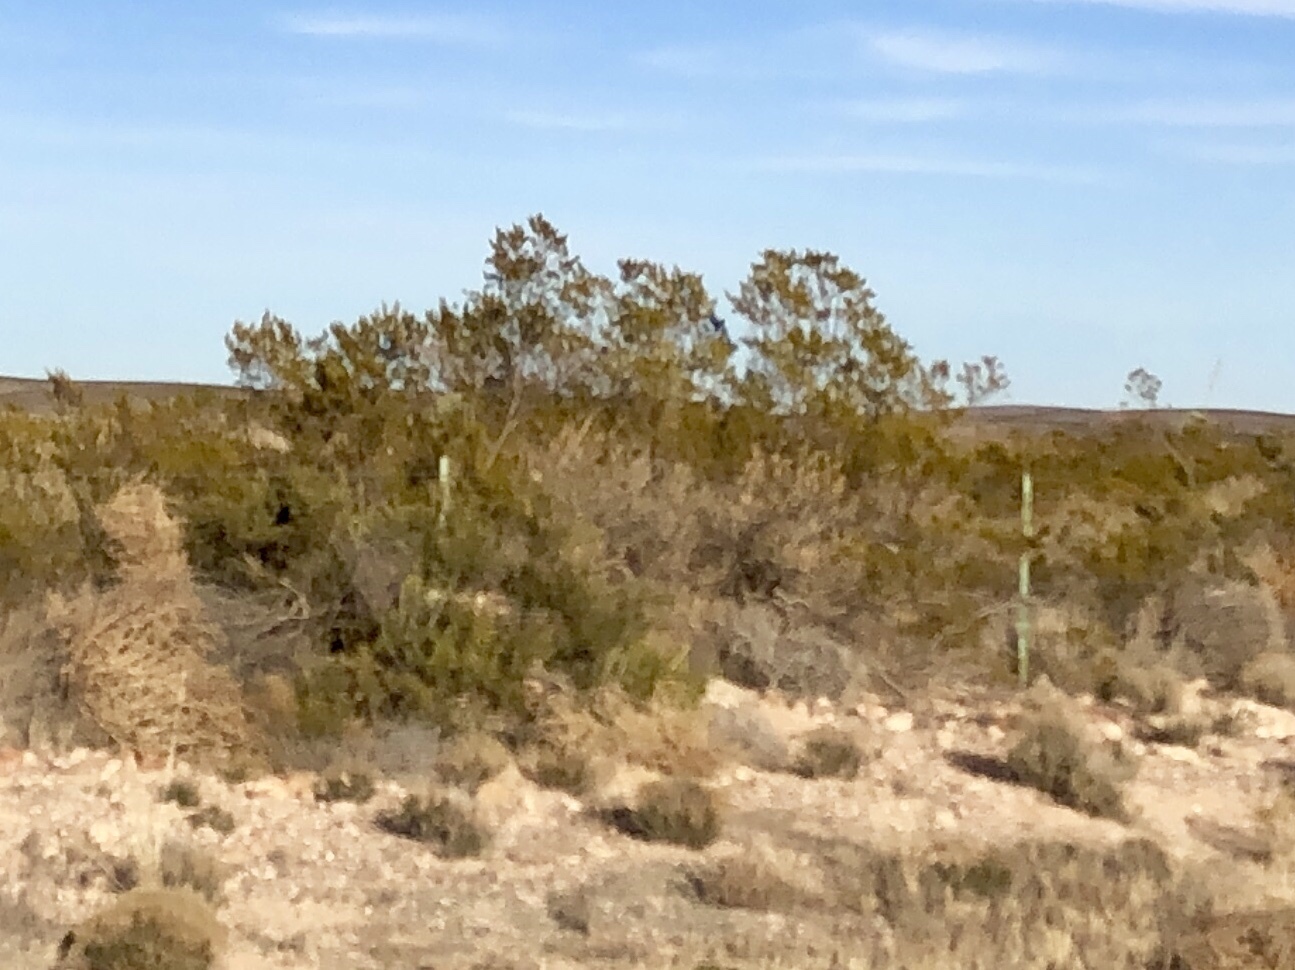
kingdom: Plantae
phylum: Tracheophyta
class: Magnoliopsida
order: Zygophyllales
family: Zygophyllaceae
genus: Larrea
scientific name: Larrea tridentata
